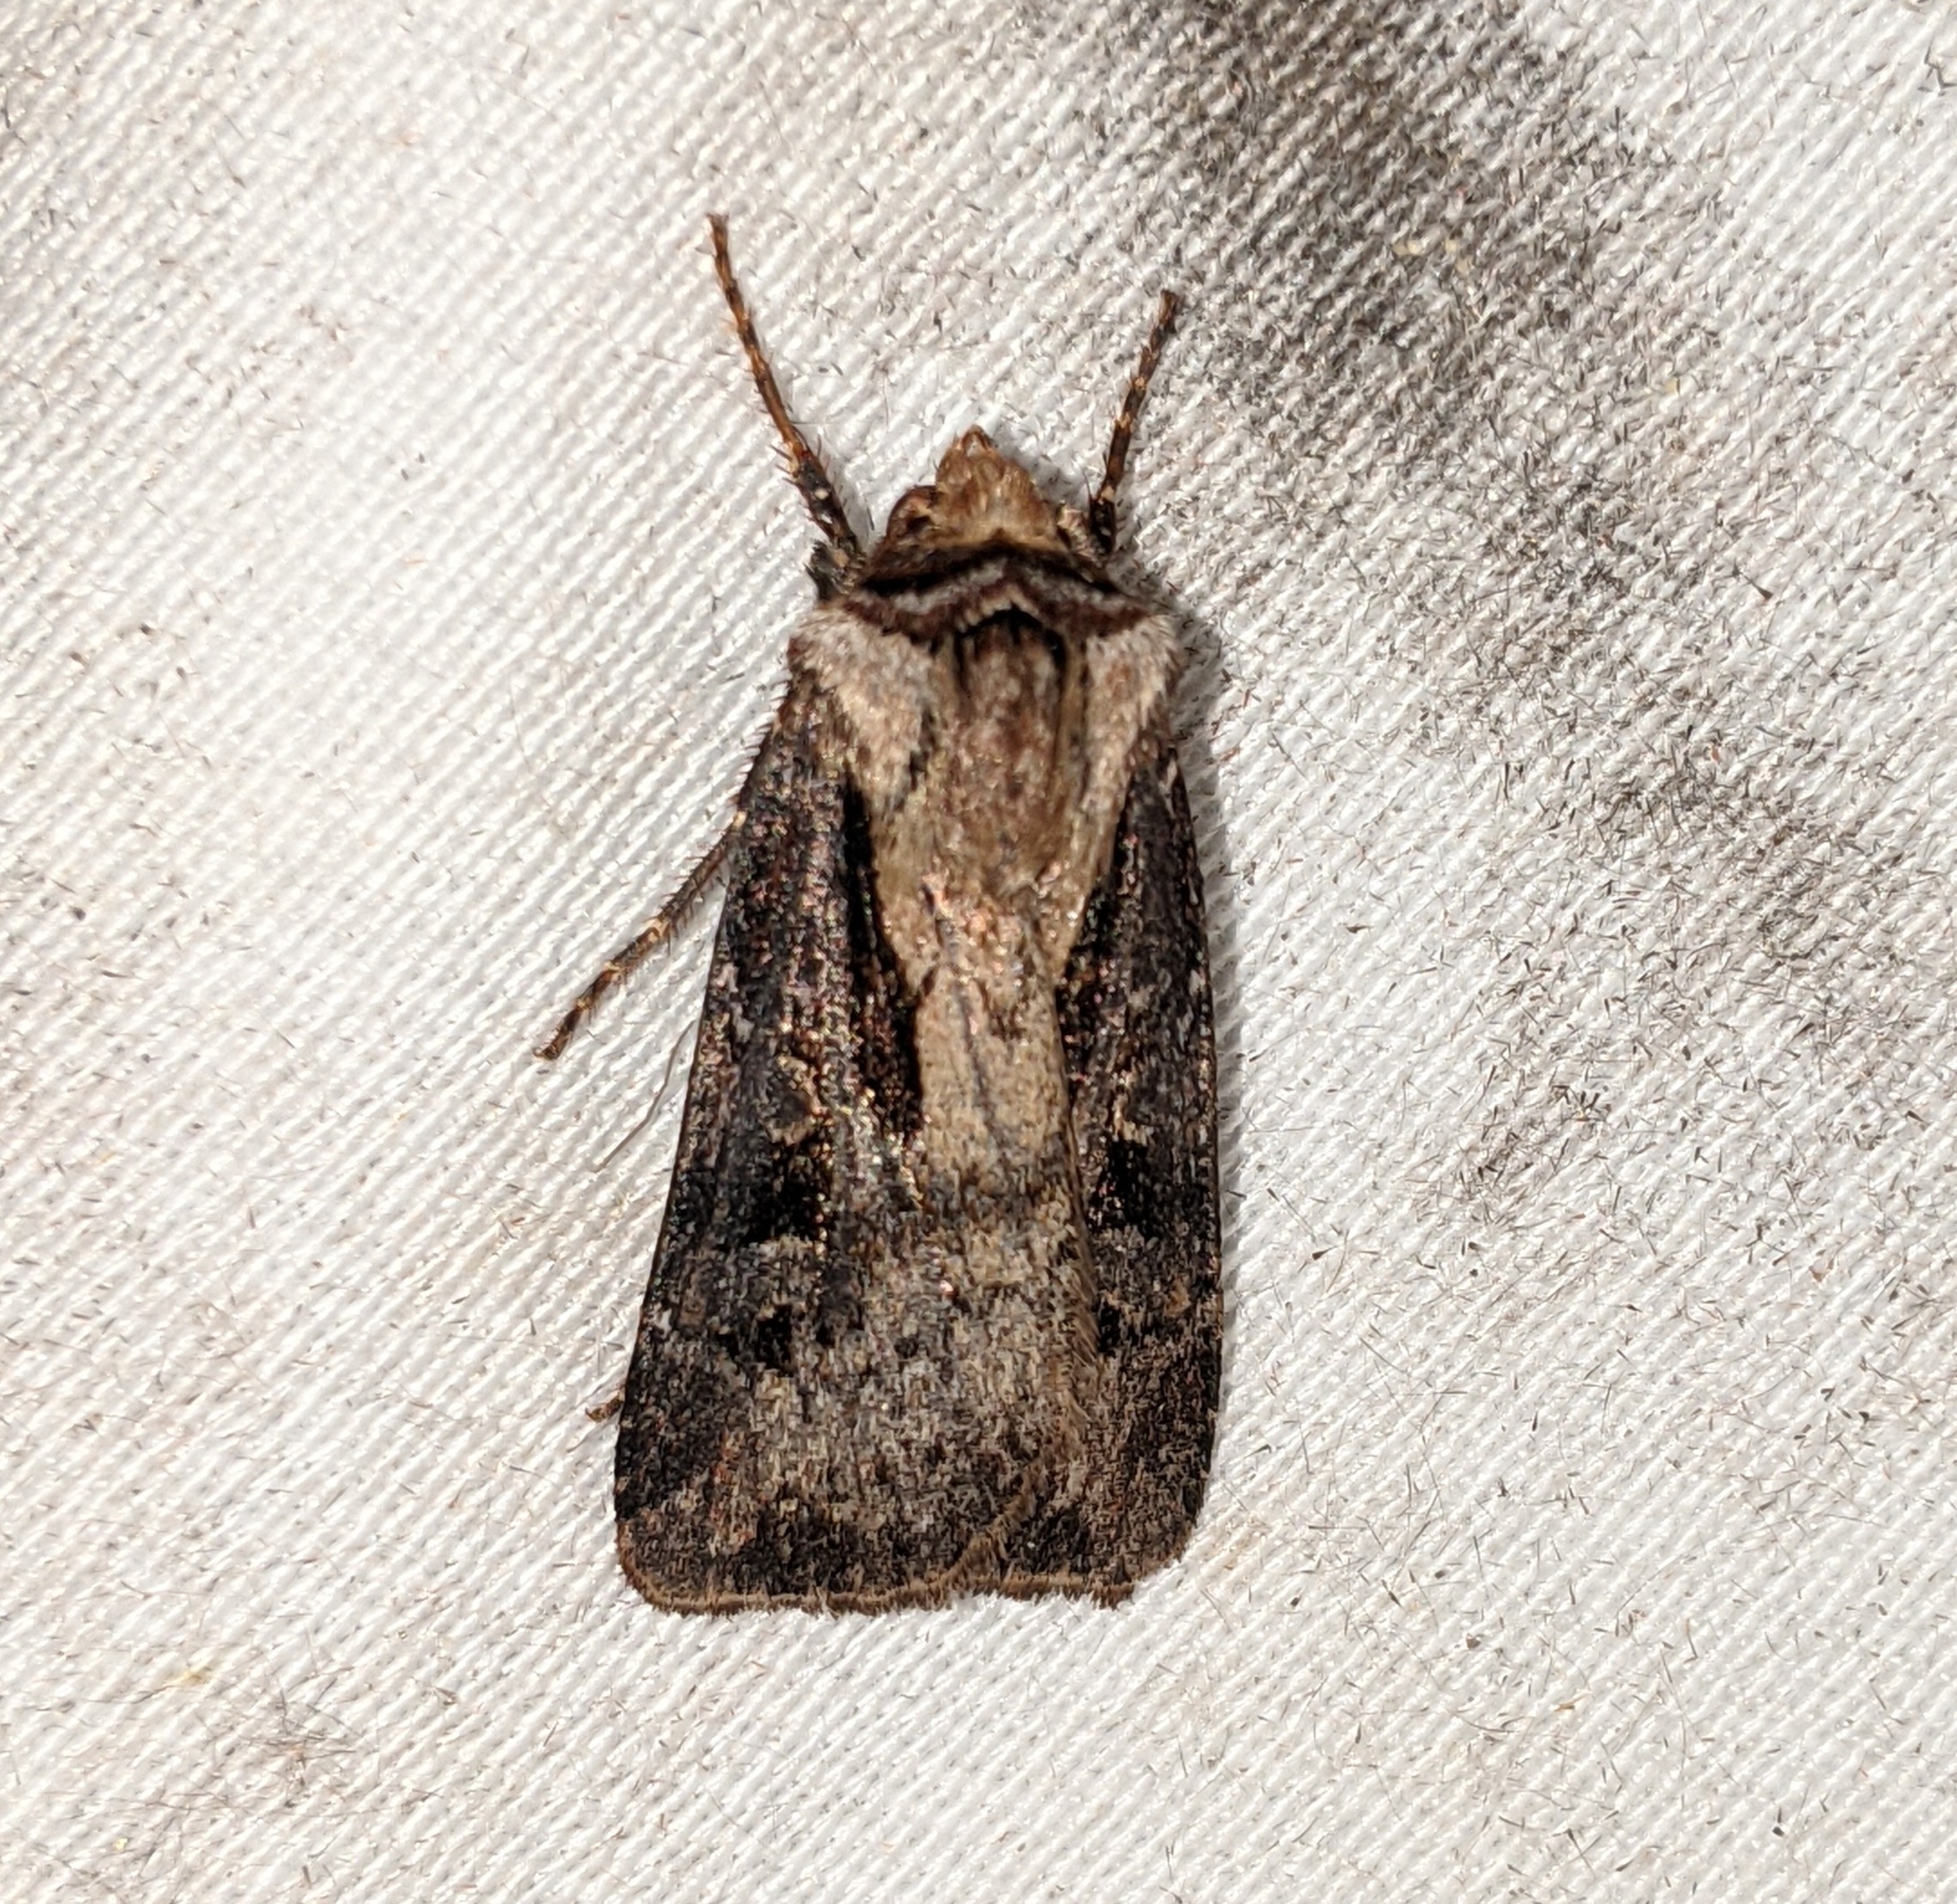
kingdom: Animalia
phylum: Arthropoda
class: Insecta
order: Lepidoptera
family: Noctuidae
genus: Agrotis
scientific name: Agrotis vancouverensis
